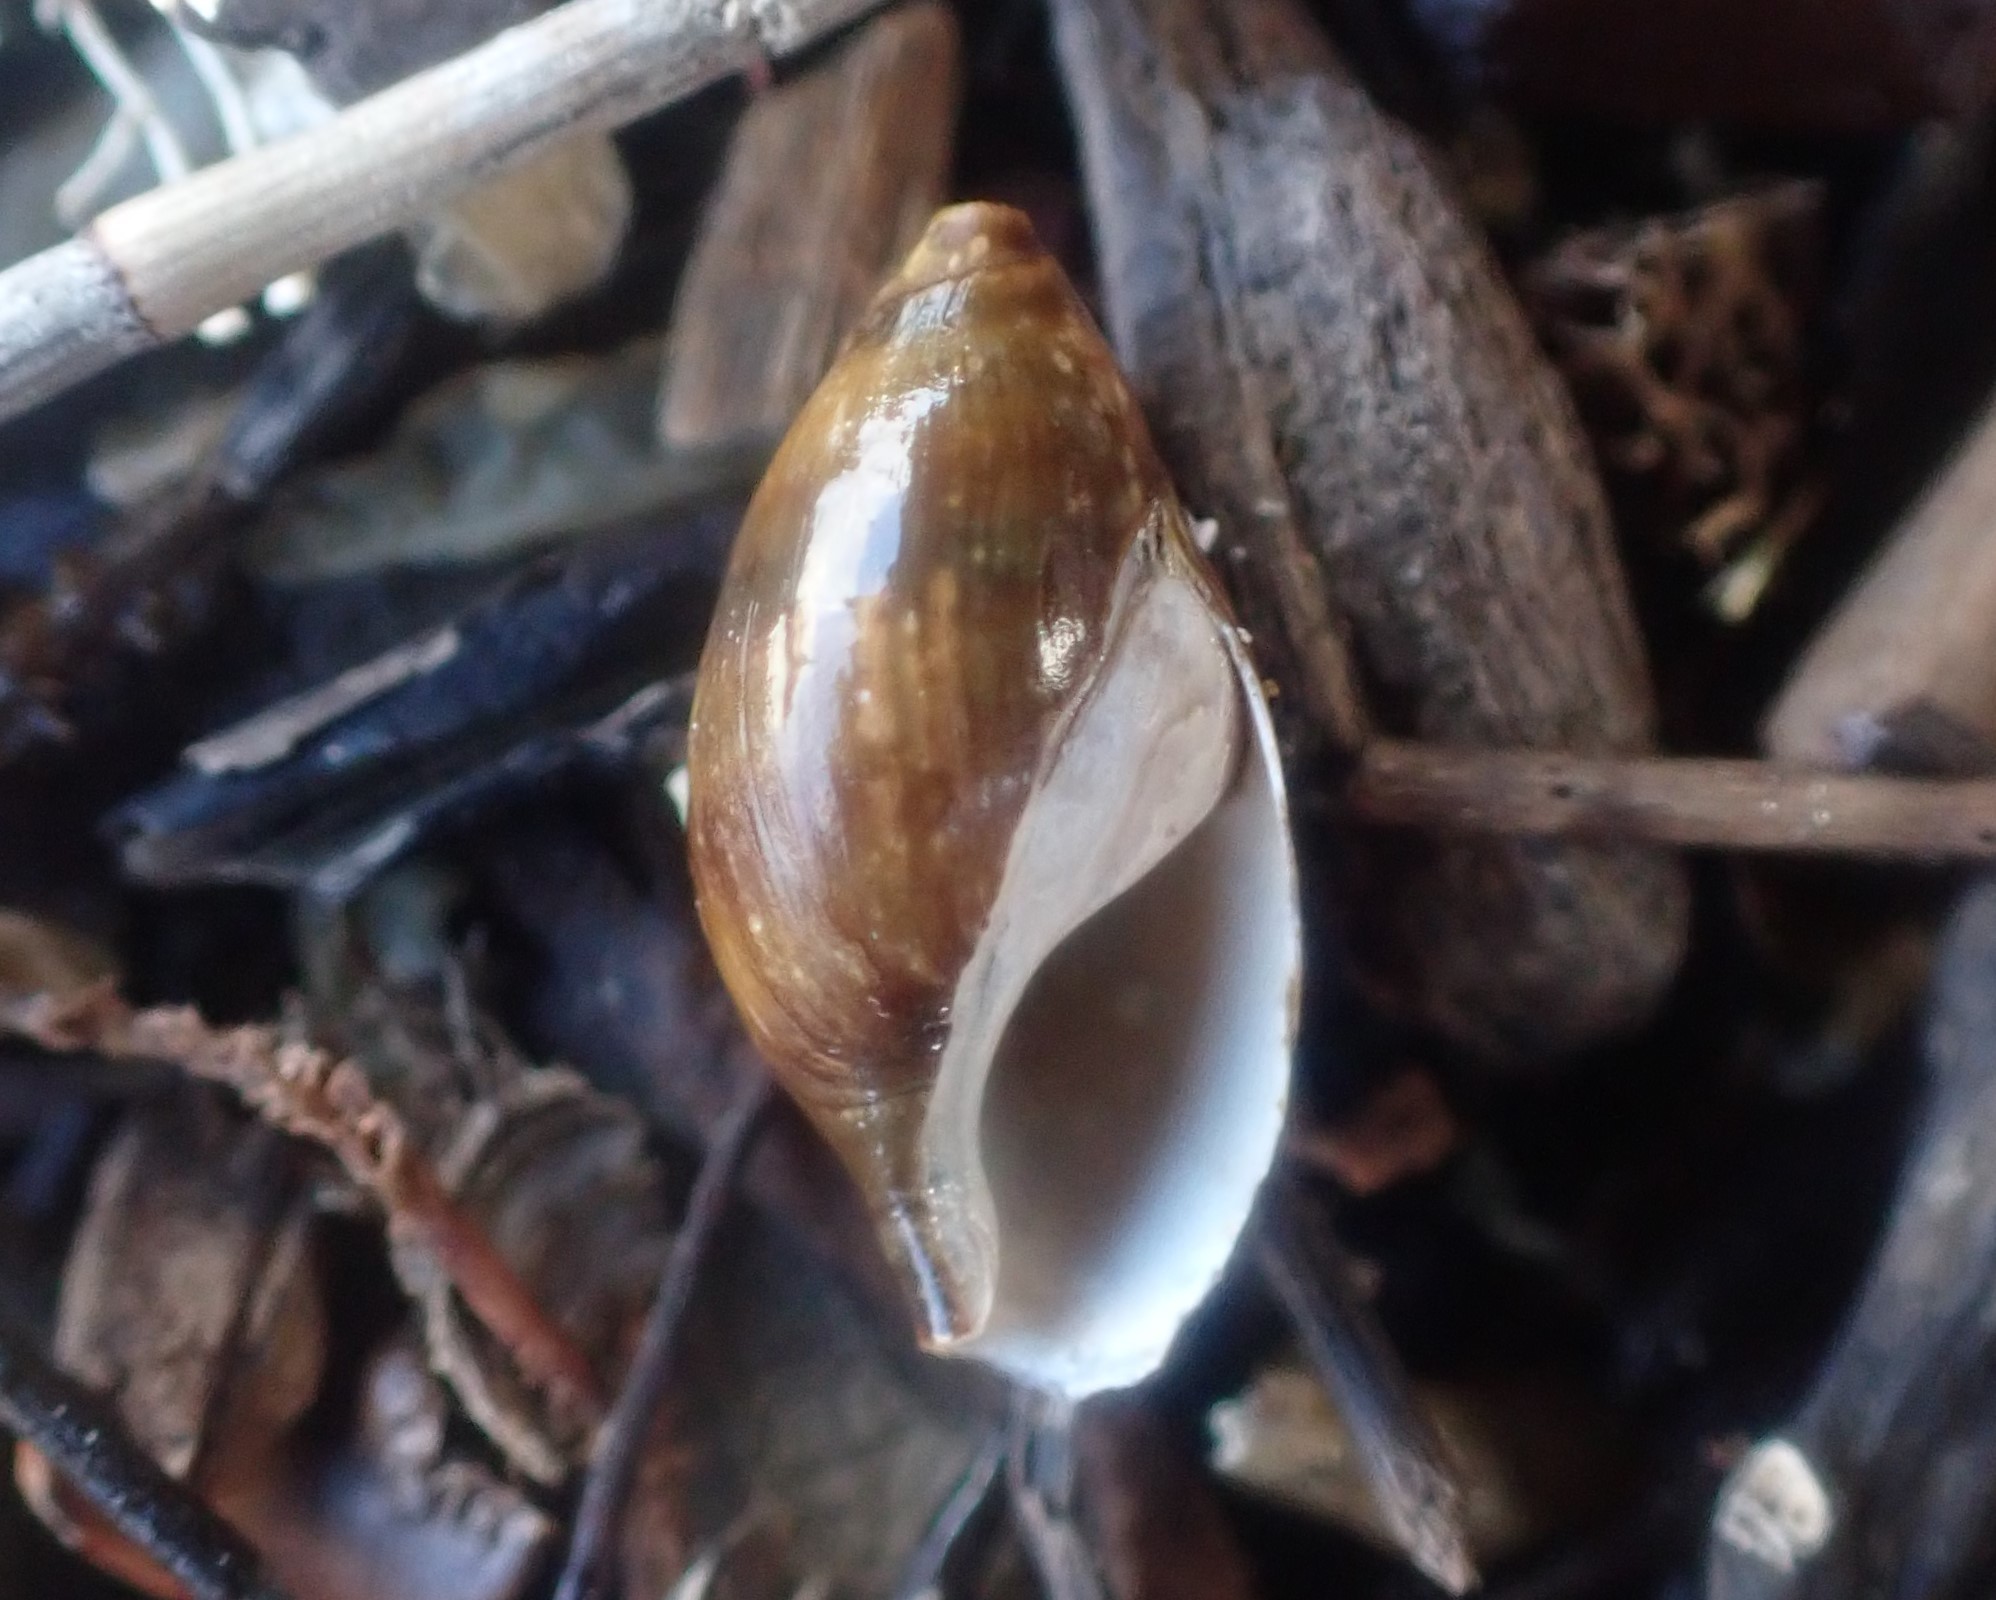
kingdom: Animalia
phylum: Mollusca
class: Gastropoda
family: Zemelanopsidae
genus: Zemelanopsis
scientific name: Zemelanopsis trifasciata
